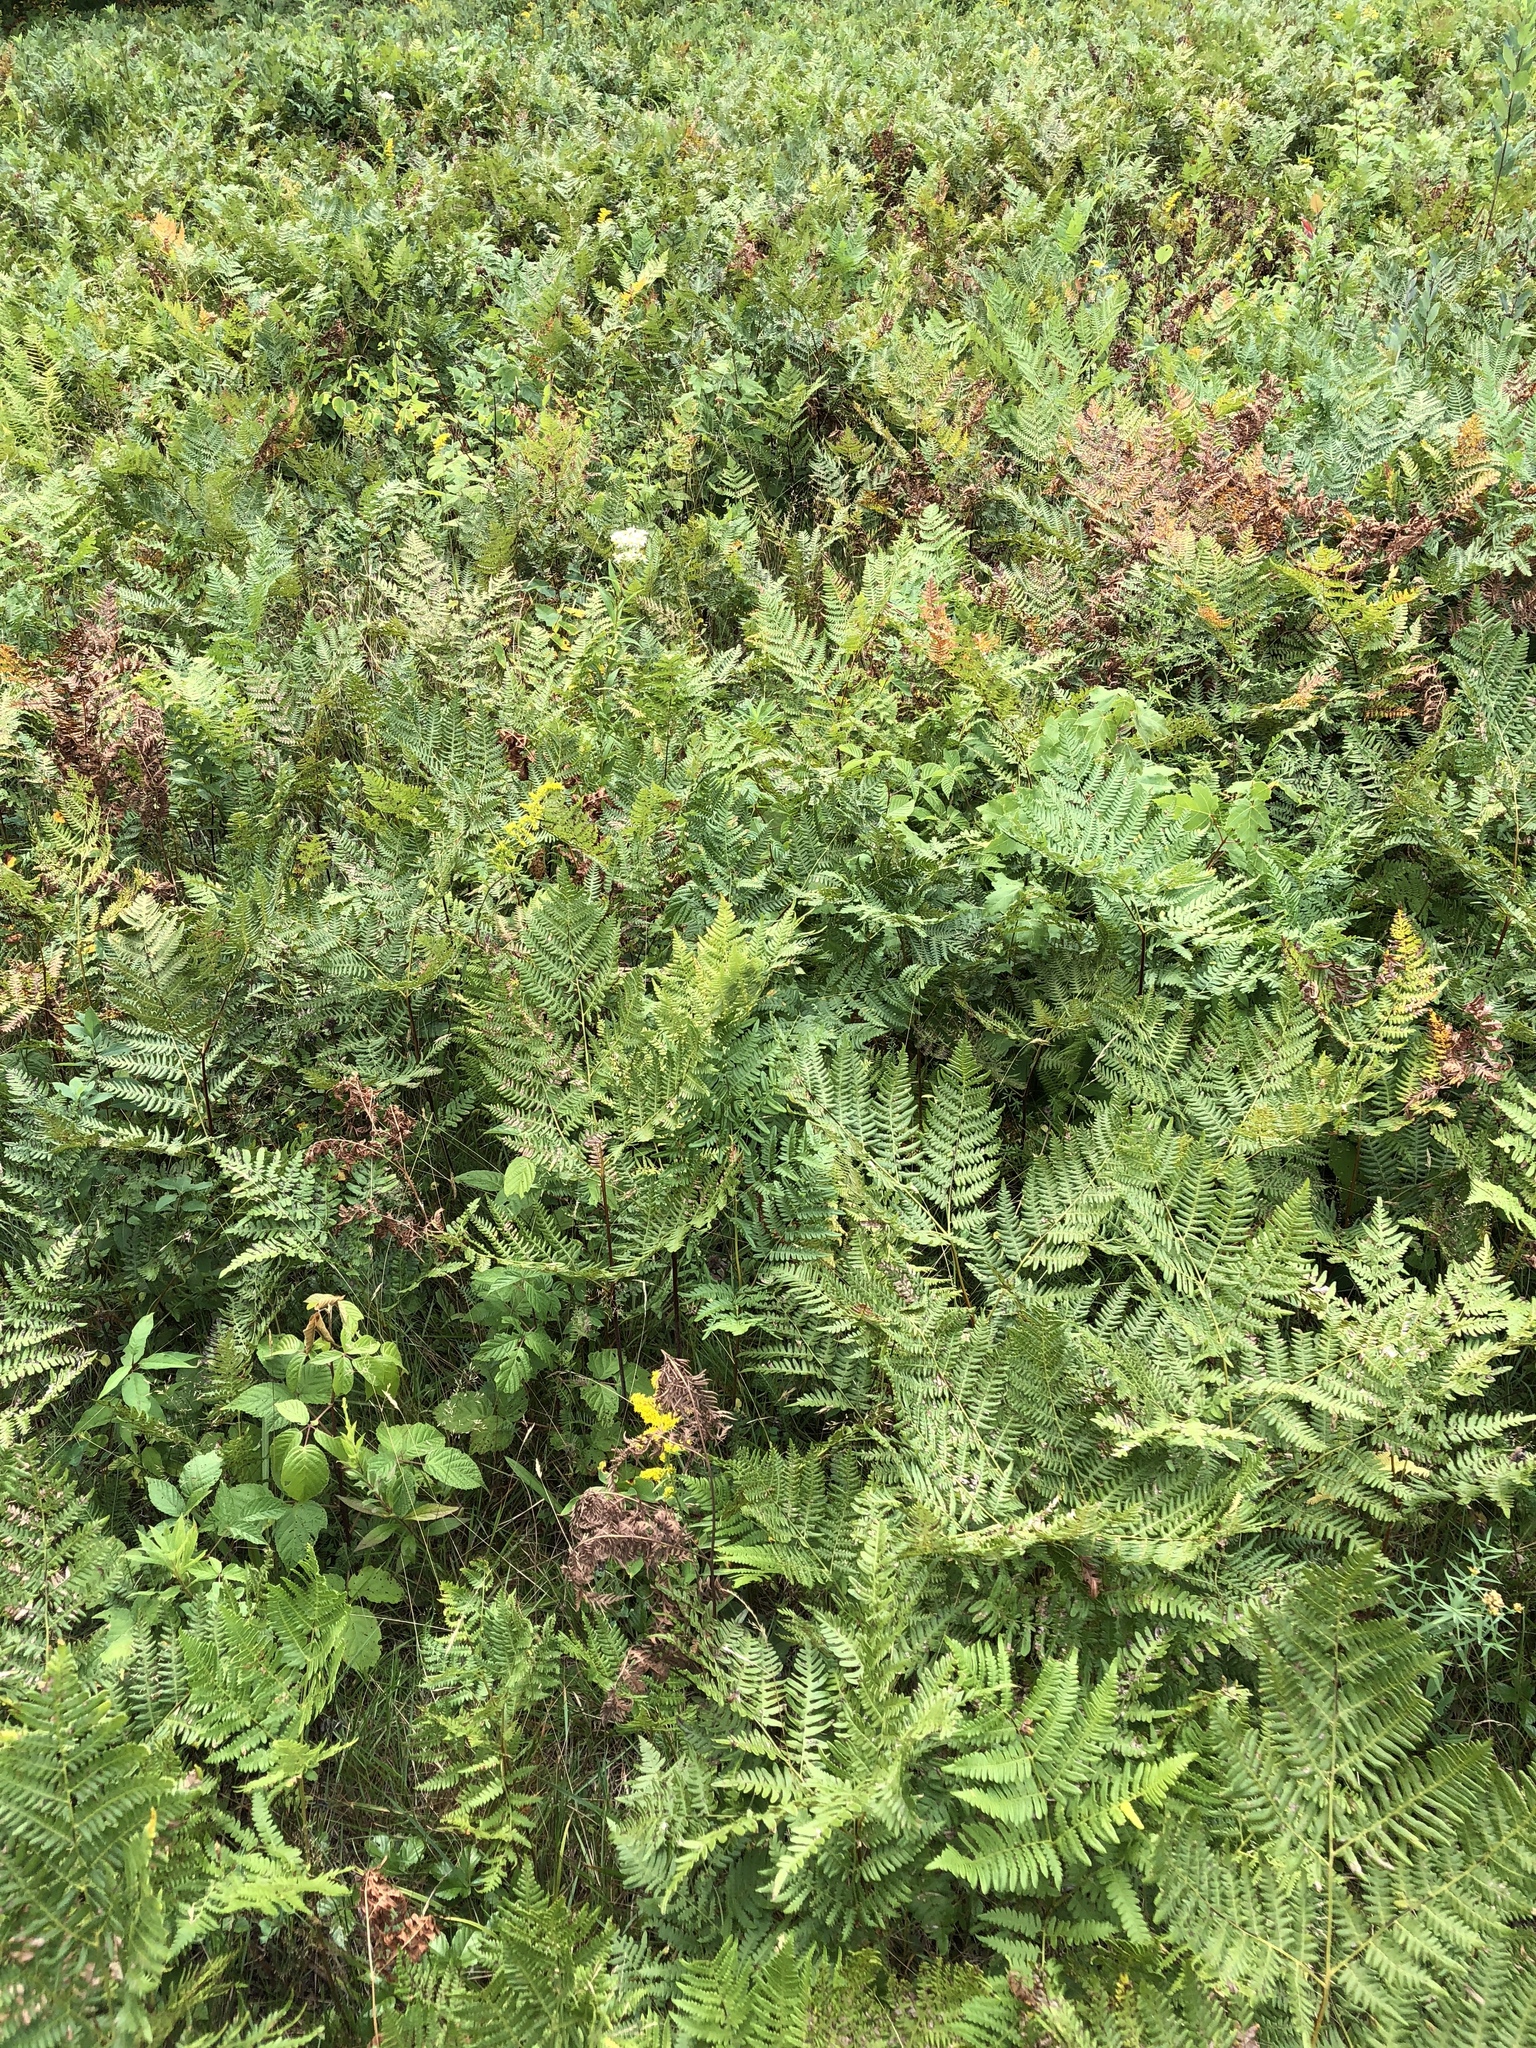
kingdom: Plantae
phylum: Tracheophyta
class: Polypodiopsida
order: Polypodiales
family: Dennstaedtiaceae
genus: Pteridium
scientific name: Pteridium aquilinum
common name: Bracken
